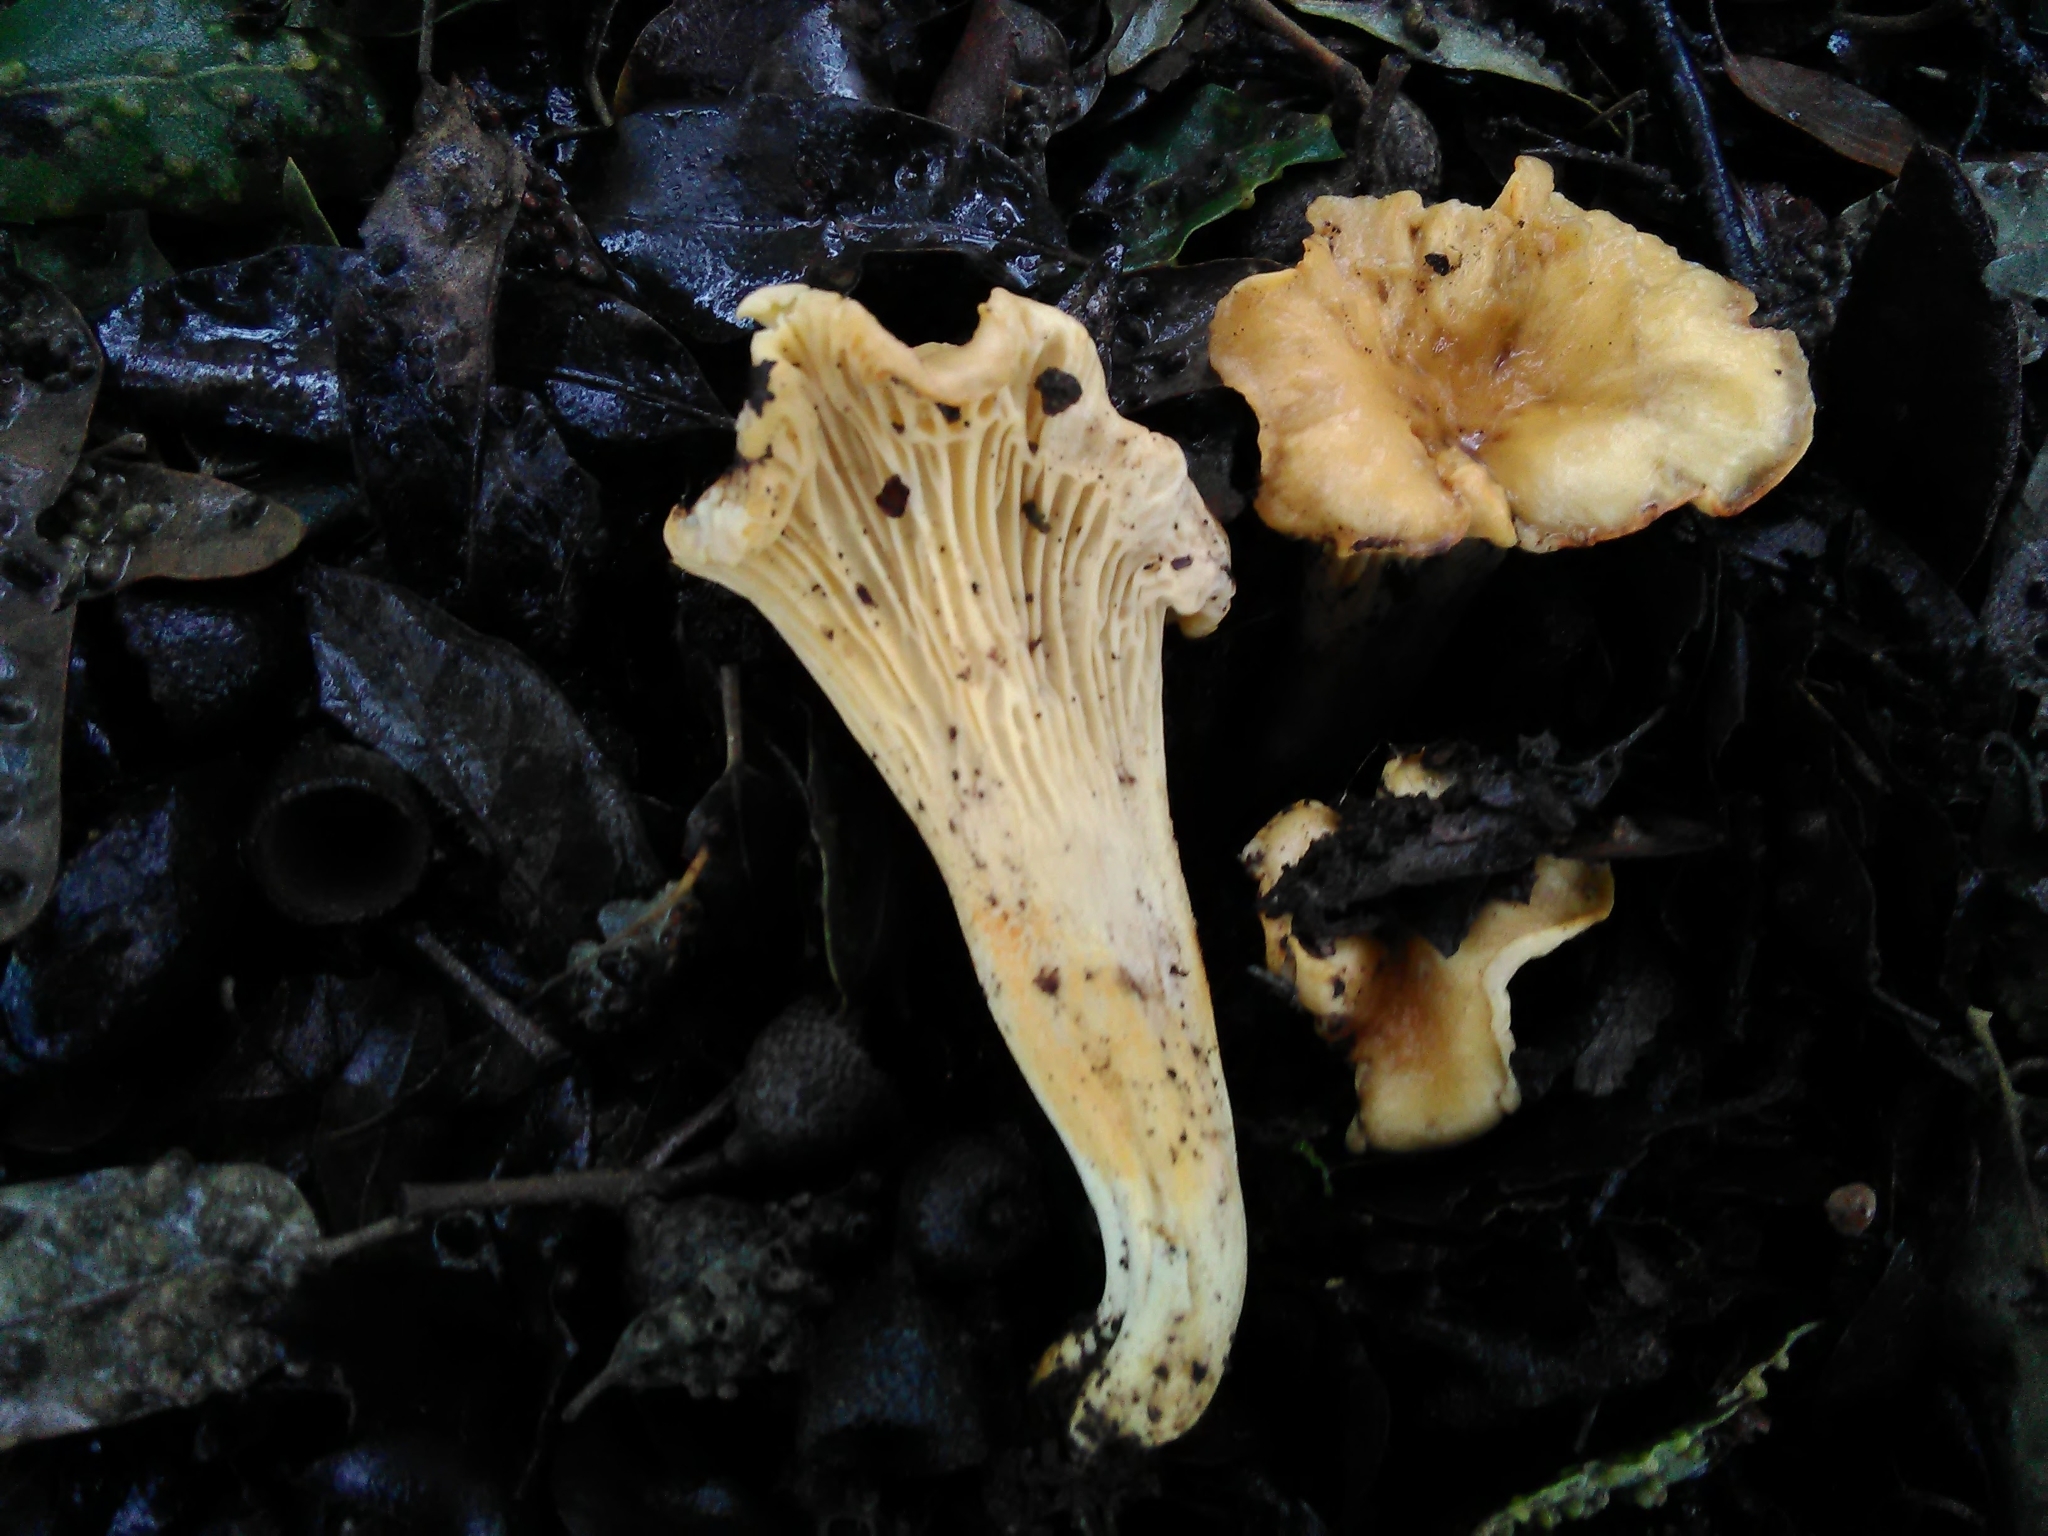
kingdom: Fungi
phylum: Basidiomycota
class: Agaricomycetes
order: Cantharellales
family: Hydnaceae
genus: Cantharellus
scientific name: Cantharellus alborufescens
